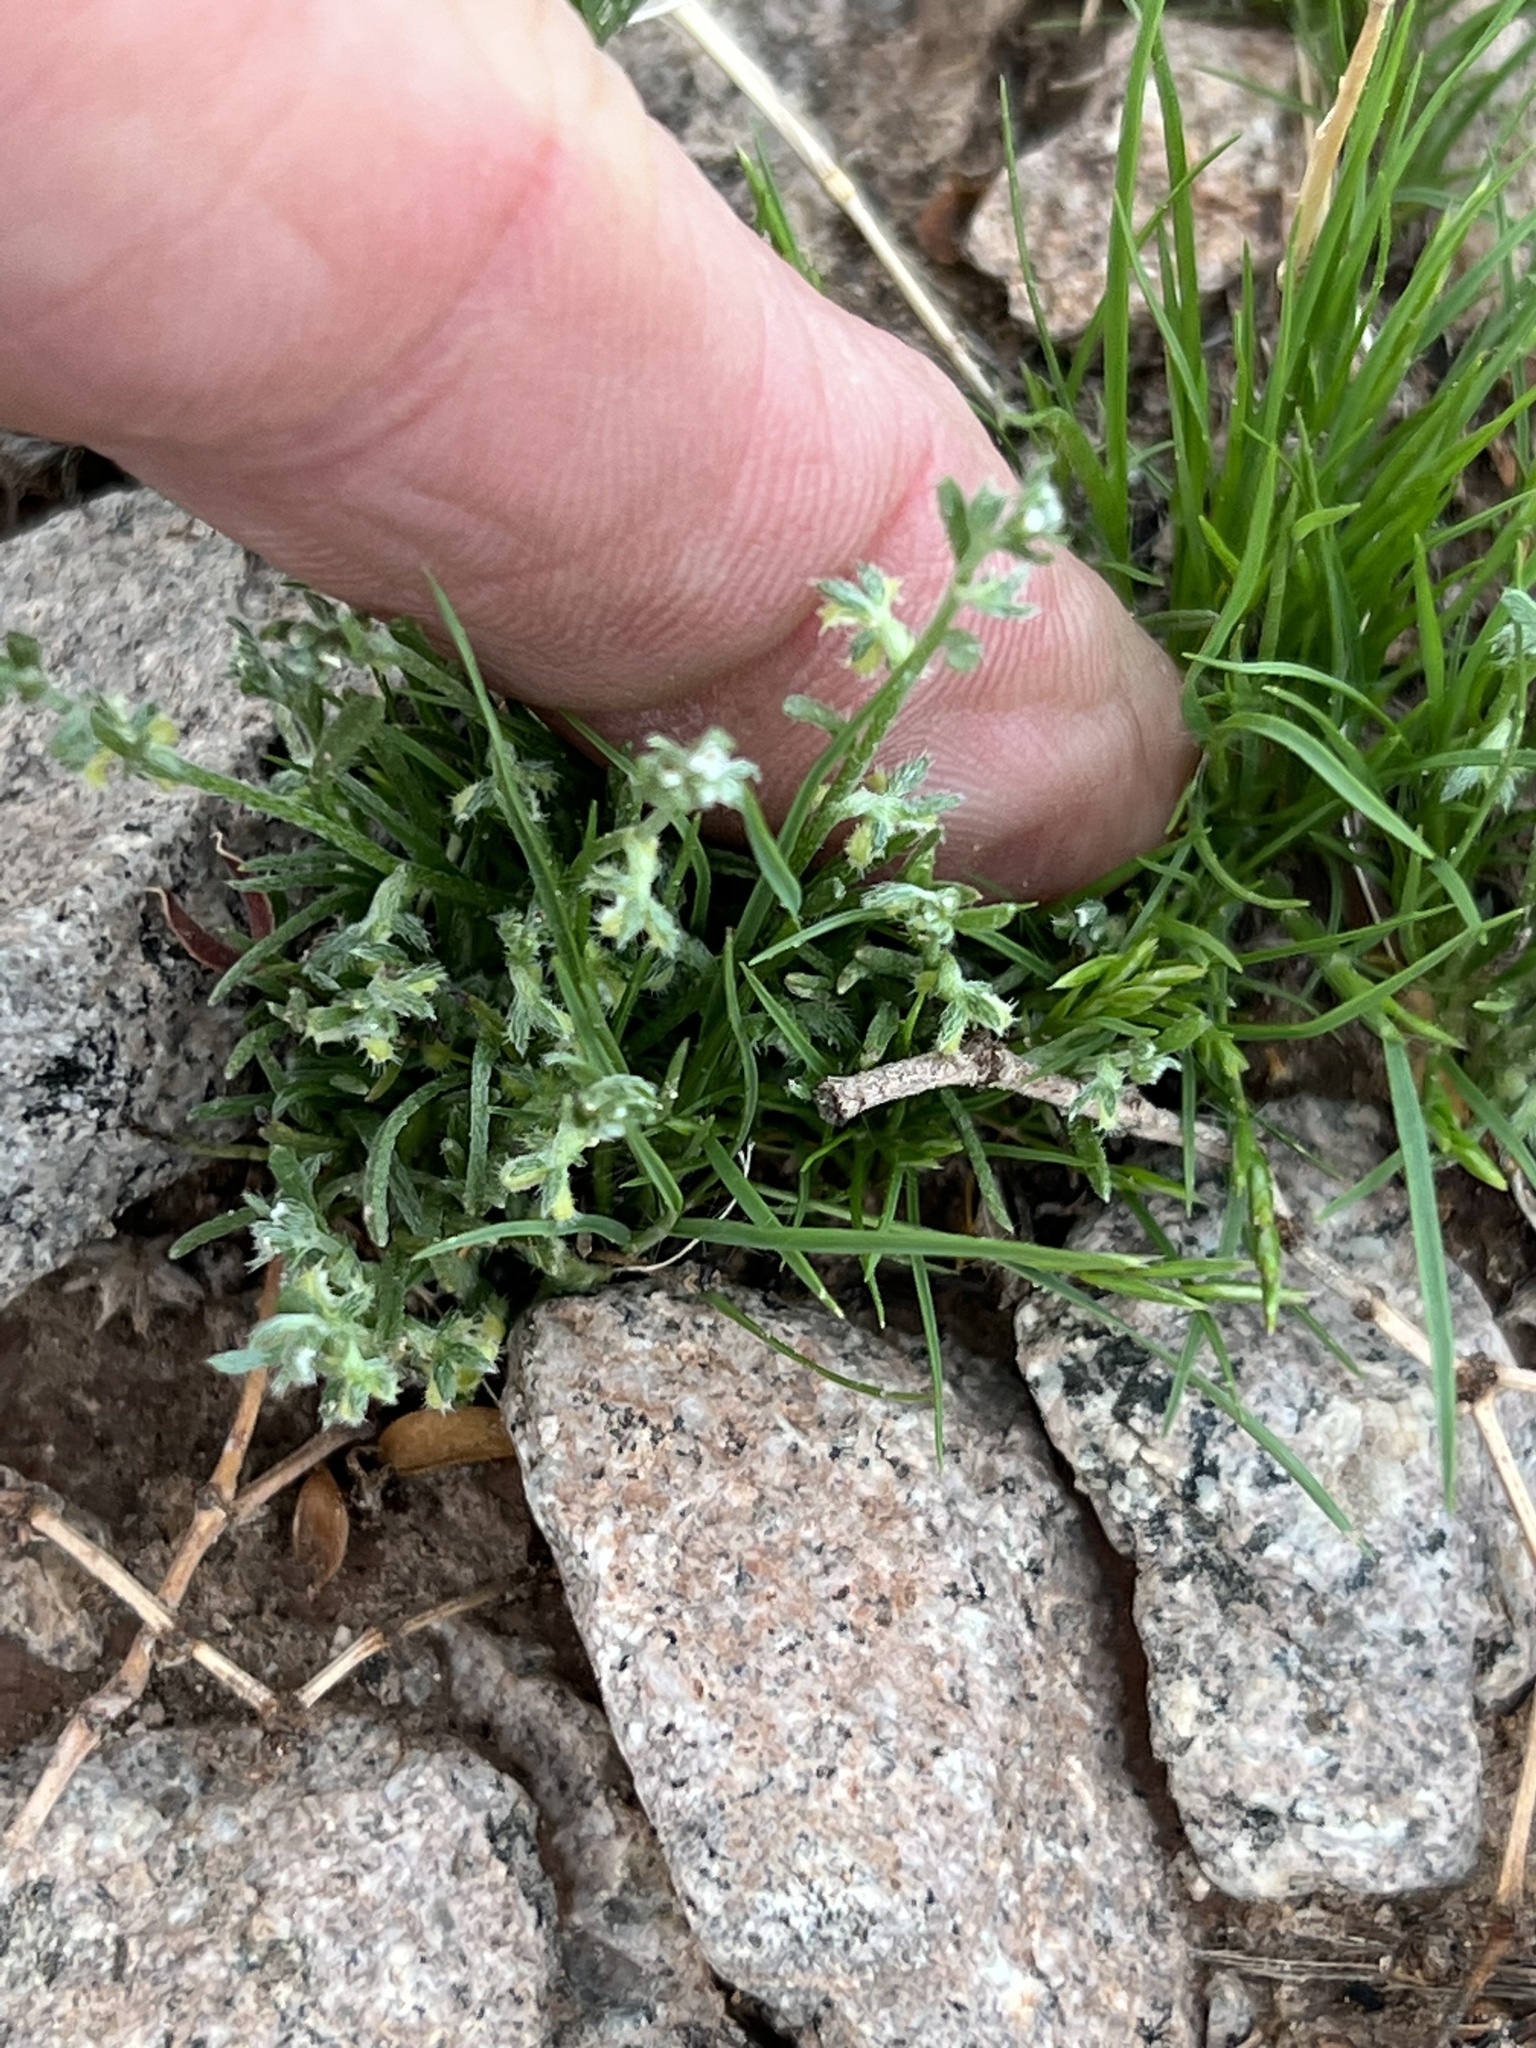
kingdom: Plantae
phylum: Tracheophyta
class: Magnoliopsida
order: Boraginales
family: Boraginaceae
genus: Pectocarya
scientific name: Pectocarya platycarpa
